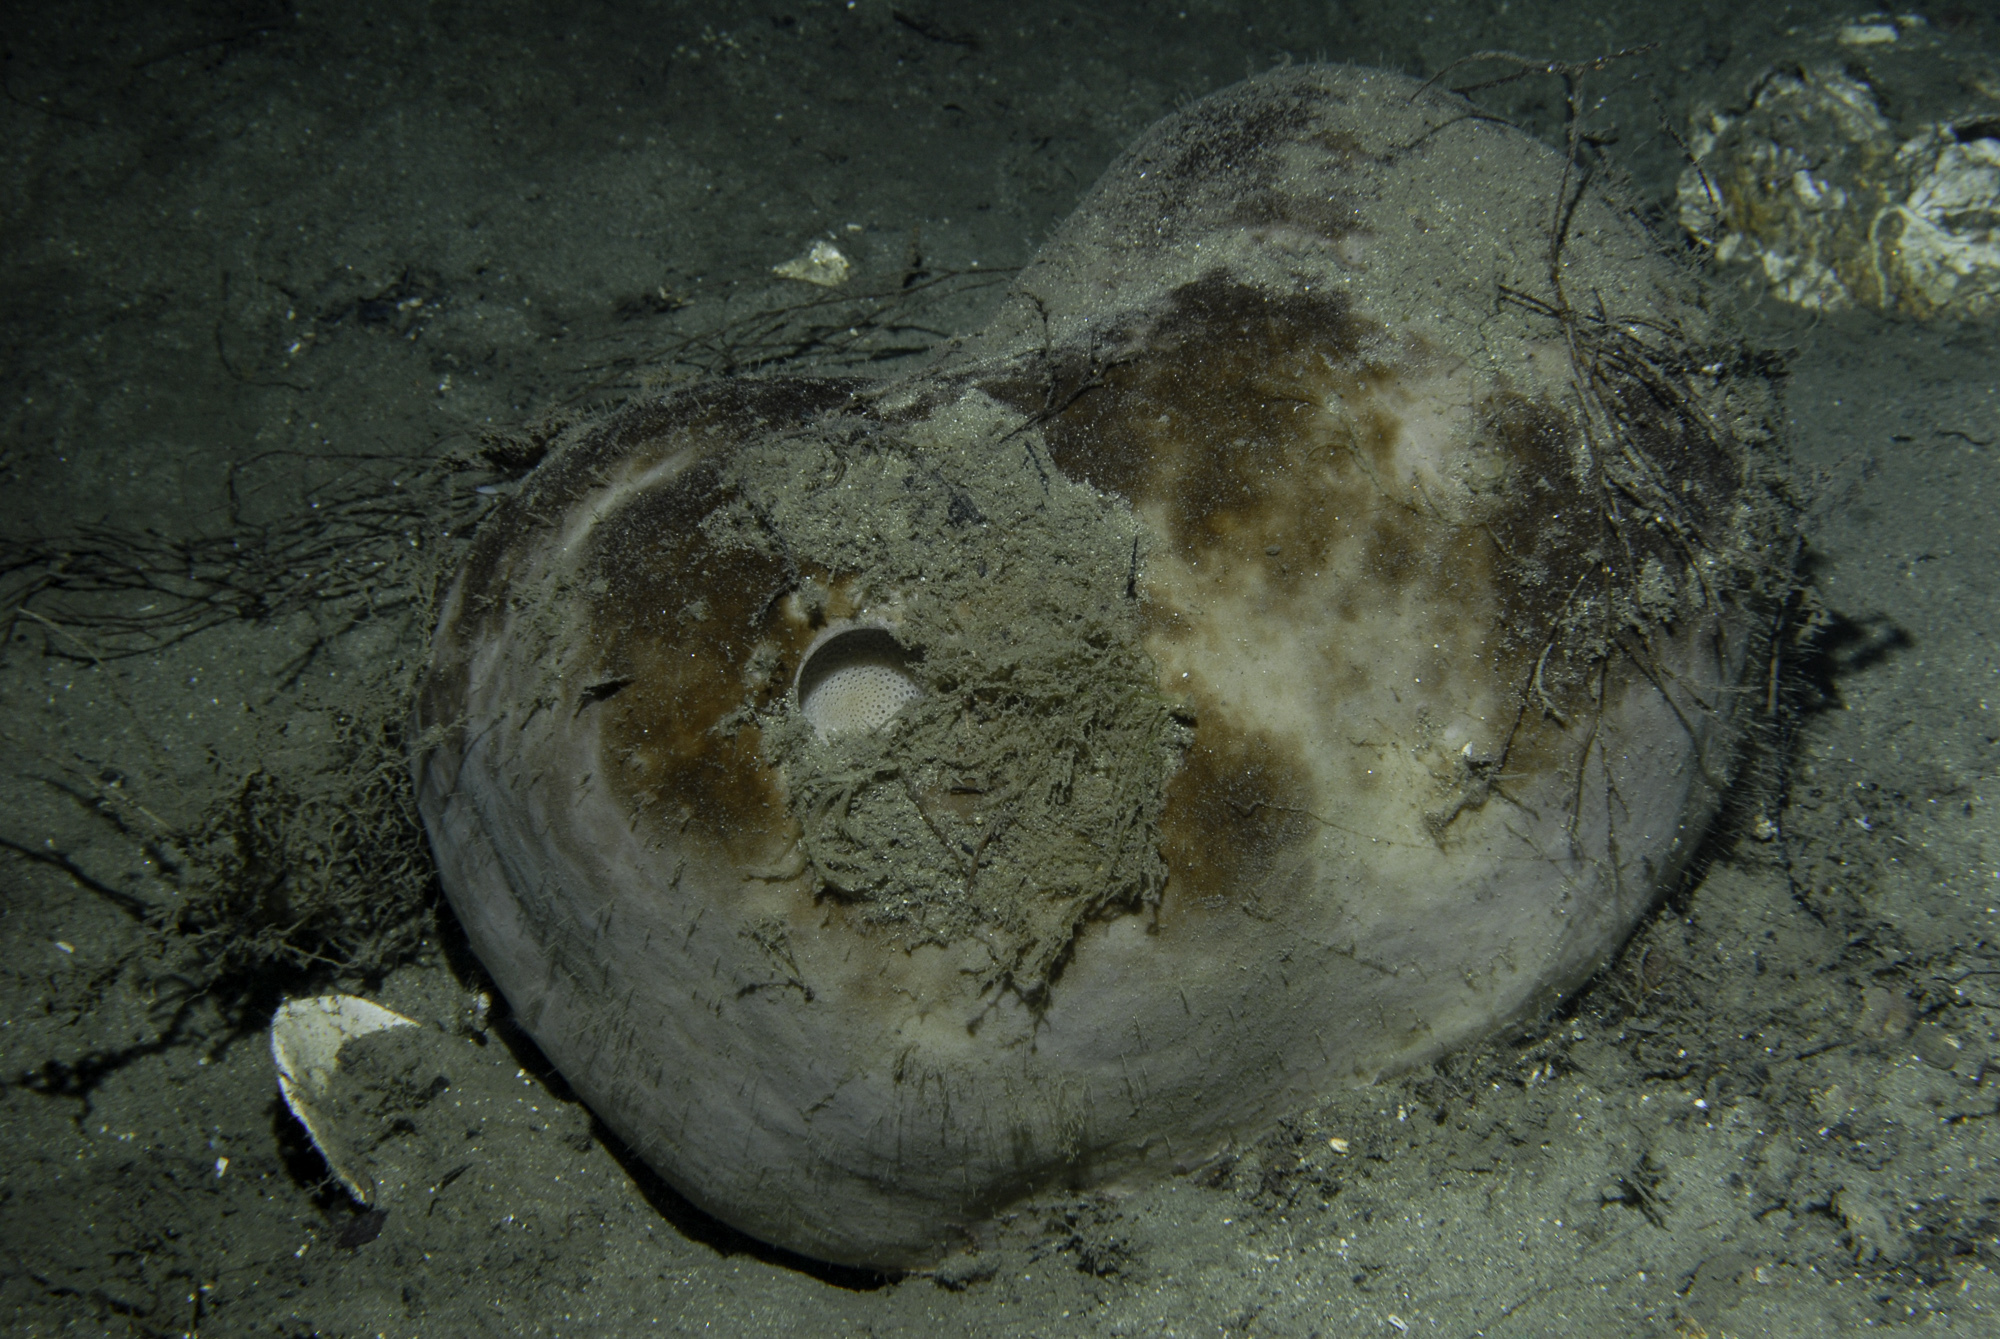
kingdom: Animalia
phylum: Porifera
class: Demospongiae
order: Tetractinellida
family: Geodiidae
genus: Geodia
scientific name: Geodia barretti
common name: Barrett's horny sponge
